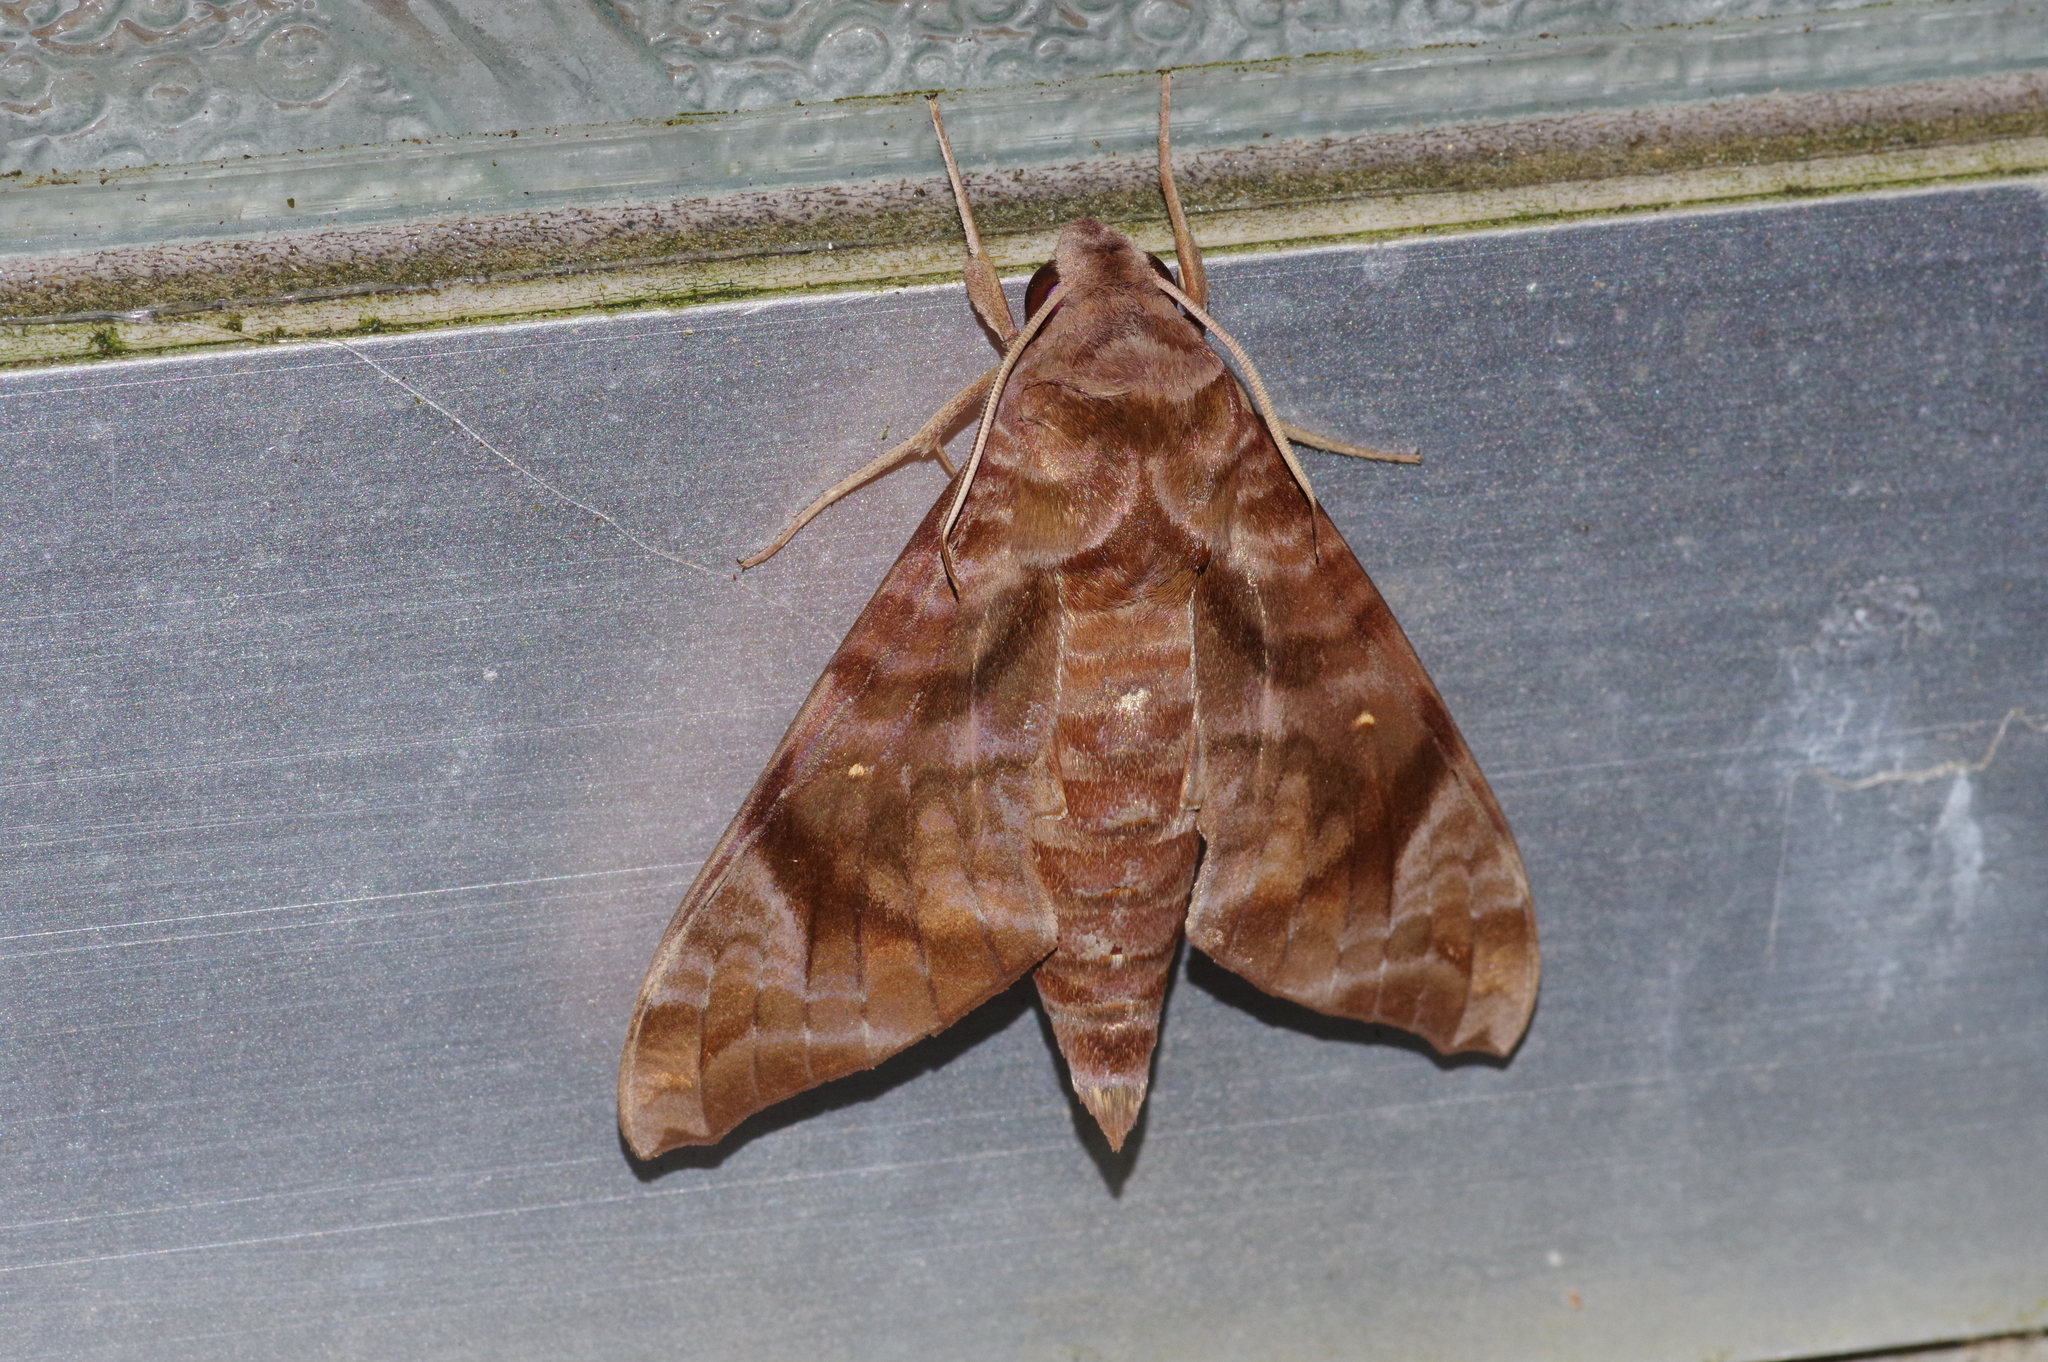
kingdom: Animalia
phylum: Arthropoda
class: Insecta
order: Lepidoptera
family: Sphingidae
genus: Acosmeryx
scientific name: Acosmeryx castanea
